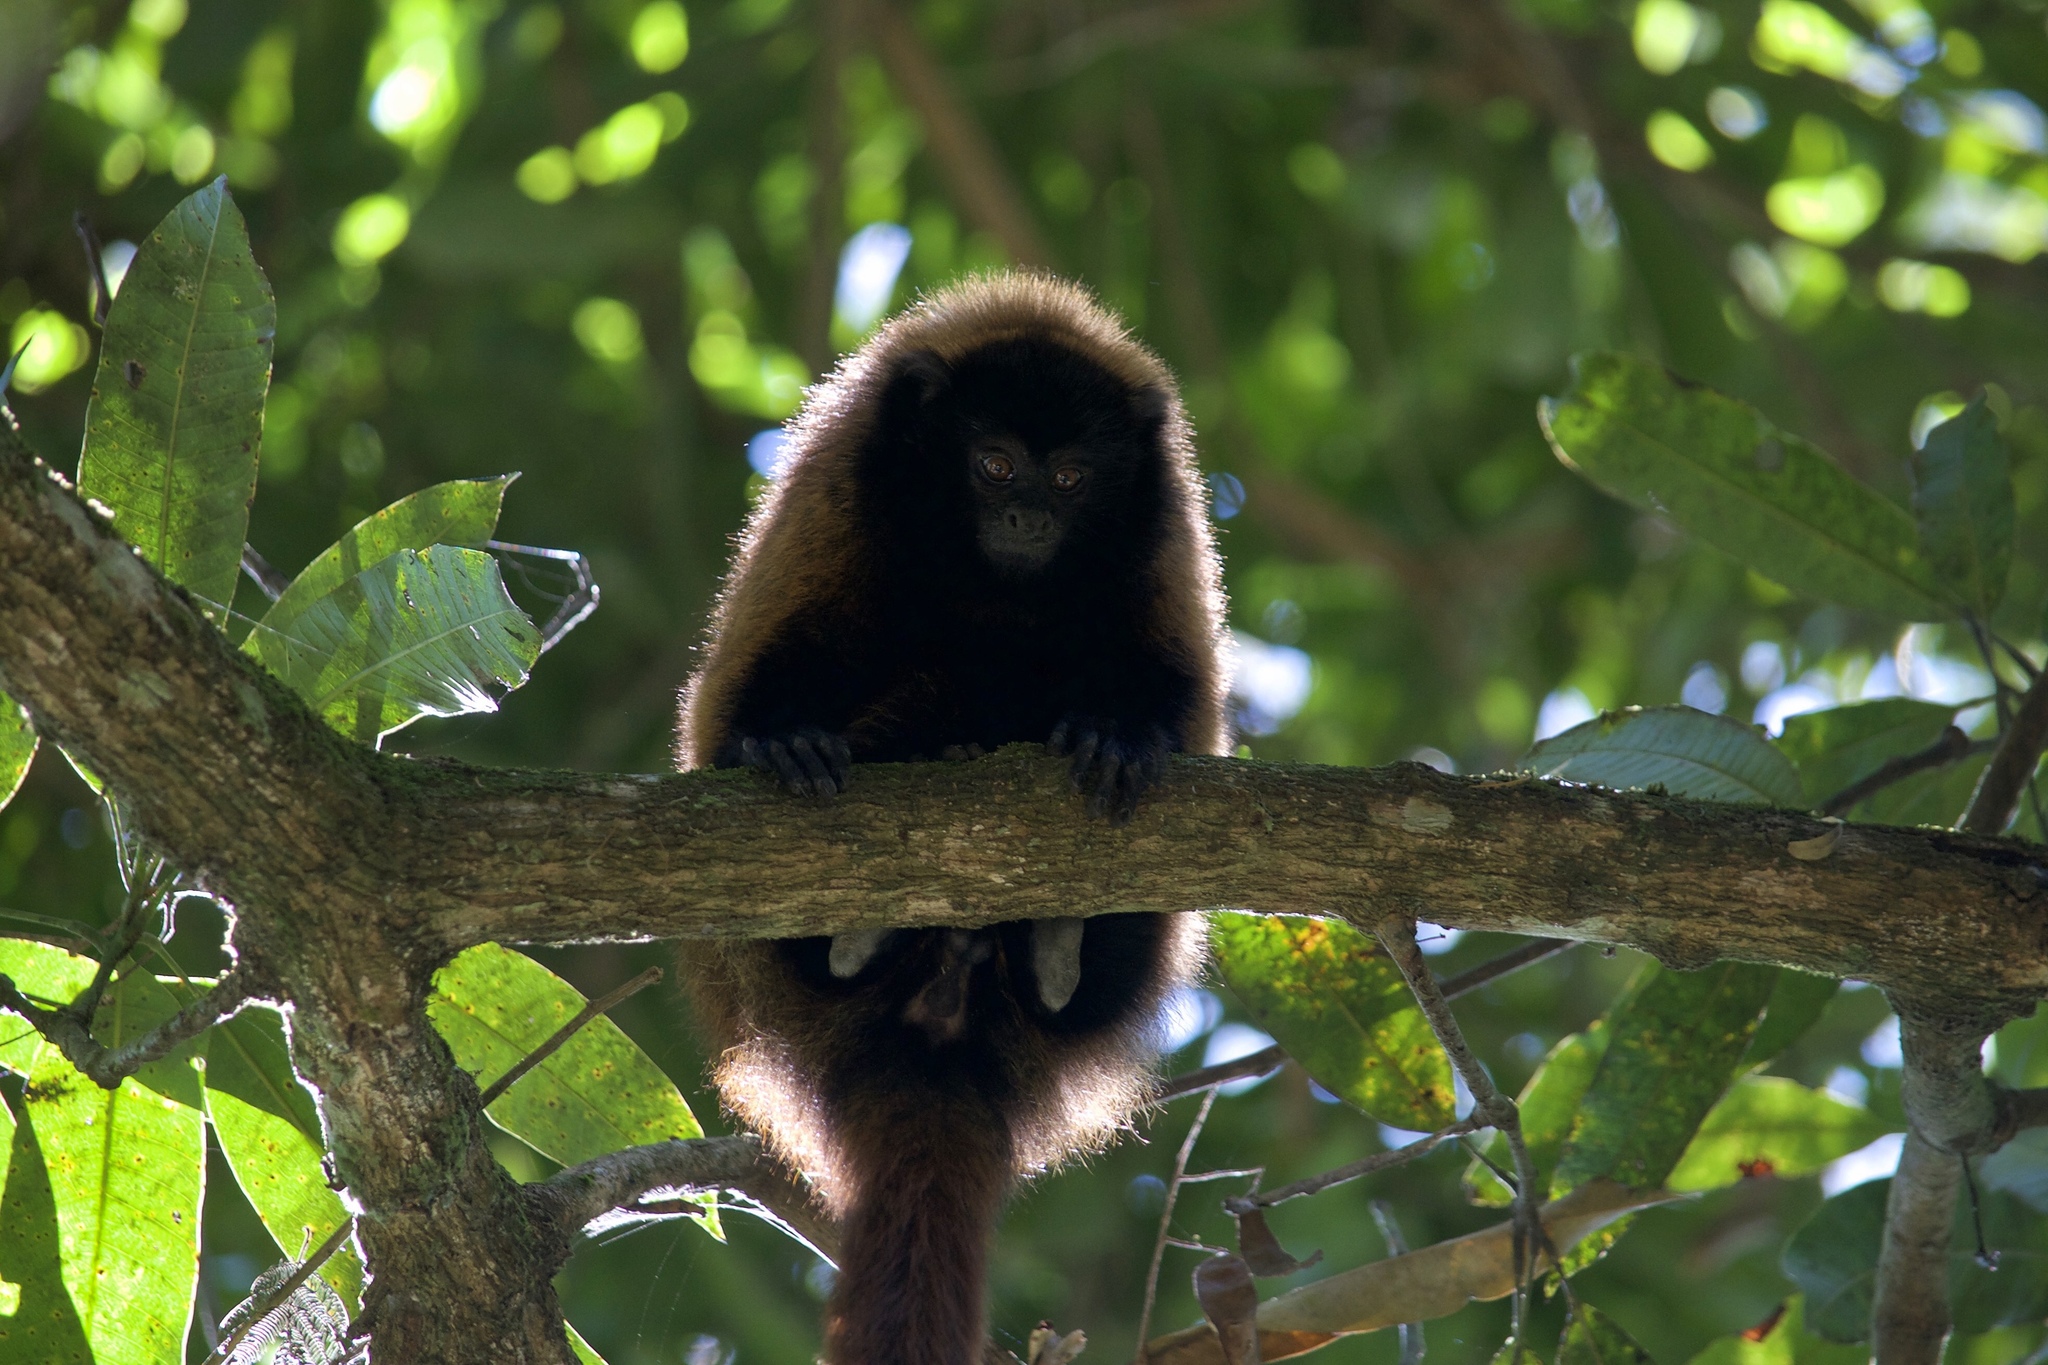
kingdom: Animalia
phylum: Chordata
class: Mammalia
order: Primates
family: Pitheciidae
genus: Callicebus
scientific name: Callicebus personatus
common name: Atlantic titi
